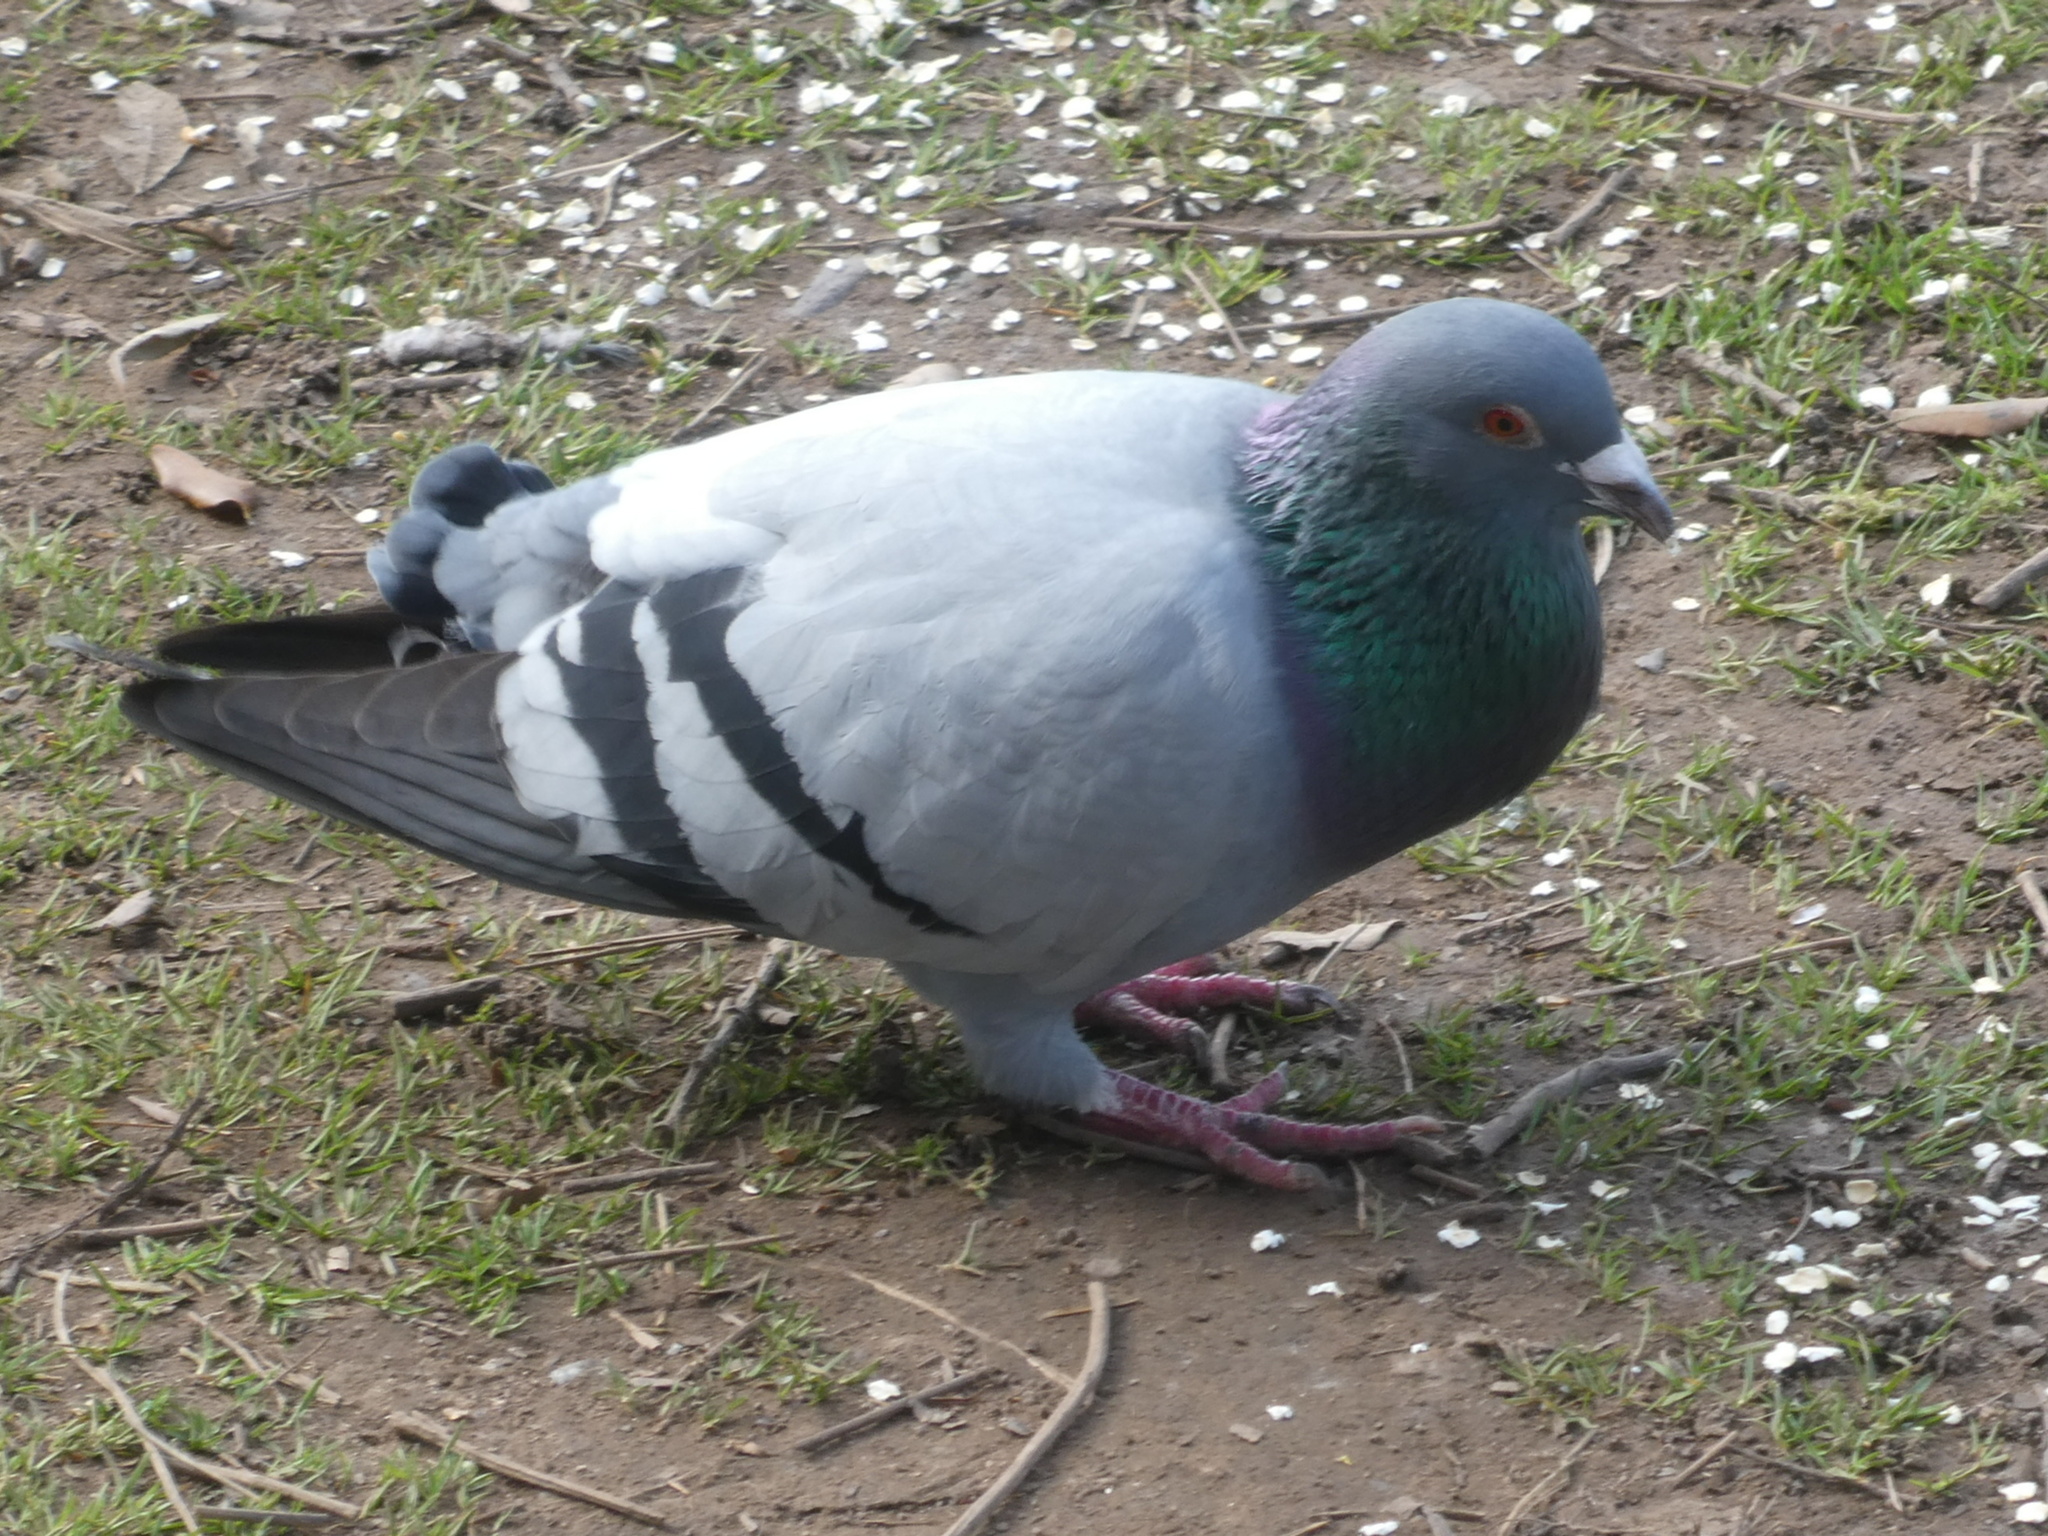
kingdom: Animalia
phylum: Chordata
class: Aves
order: Columbiformes
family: Columbidae
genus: Columba
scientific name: Columba livia
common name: Rock pigeon
